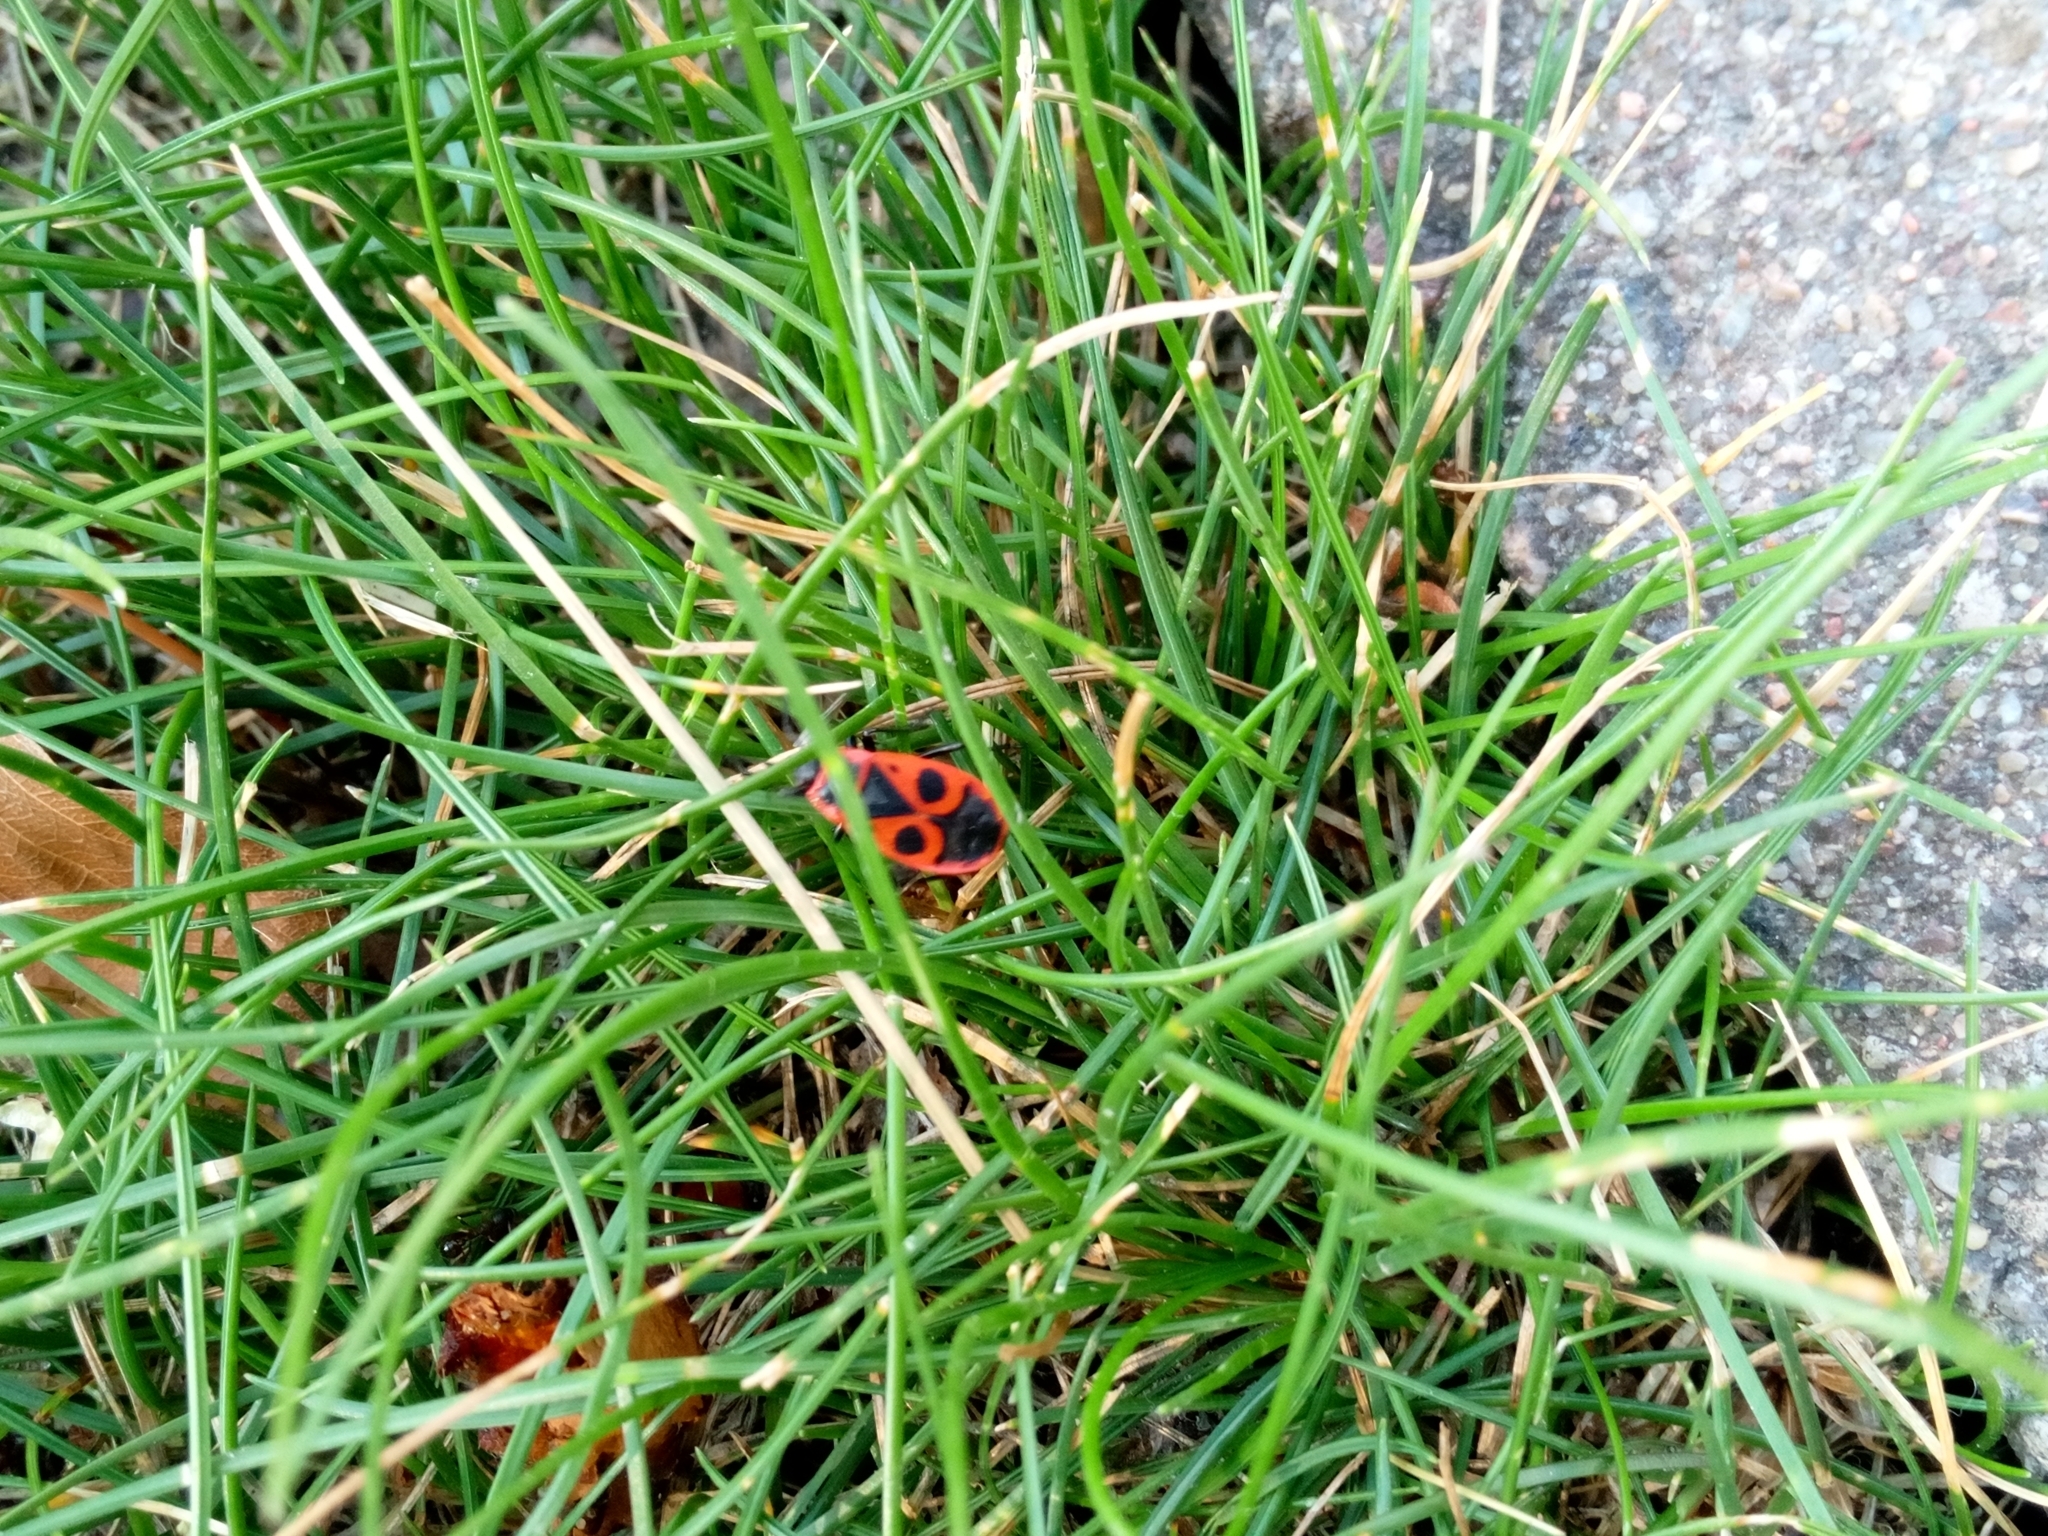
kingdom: Animalia
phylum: Arthropoda
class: Insecta
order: Hemiptera
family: Pyrrhocoridae
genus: Pyrrhocoris
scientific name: Pyrrhocoris apterus
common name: Firebug
